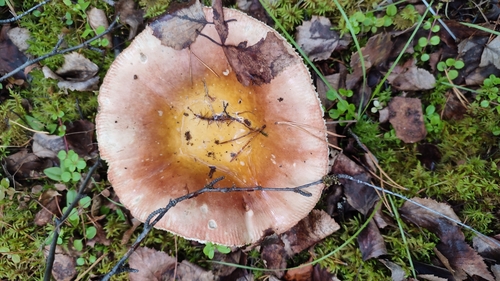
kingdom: Fungi
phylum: Basidiomycota
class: Agaricomycetes
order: Russulales
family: Russulaceae
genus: Russula
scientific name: Russula
